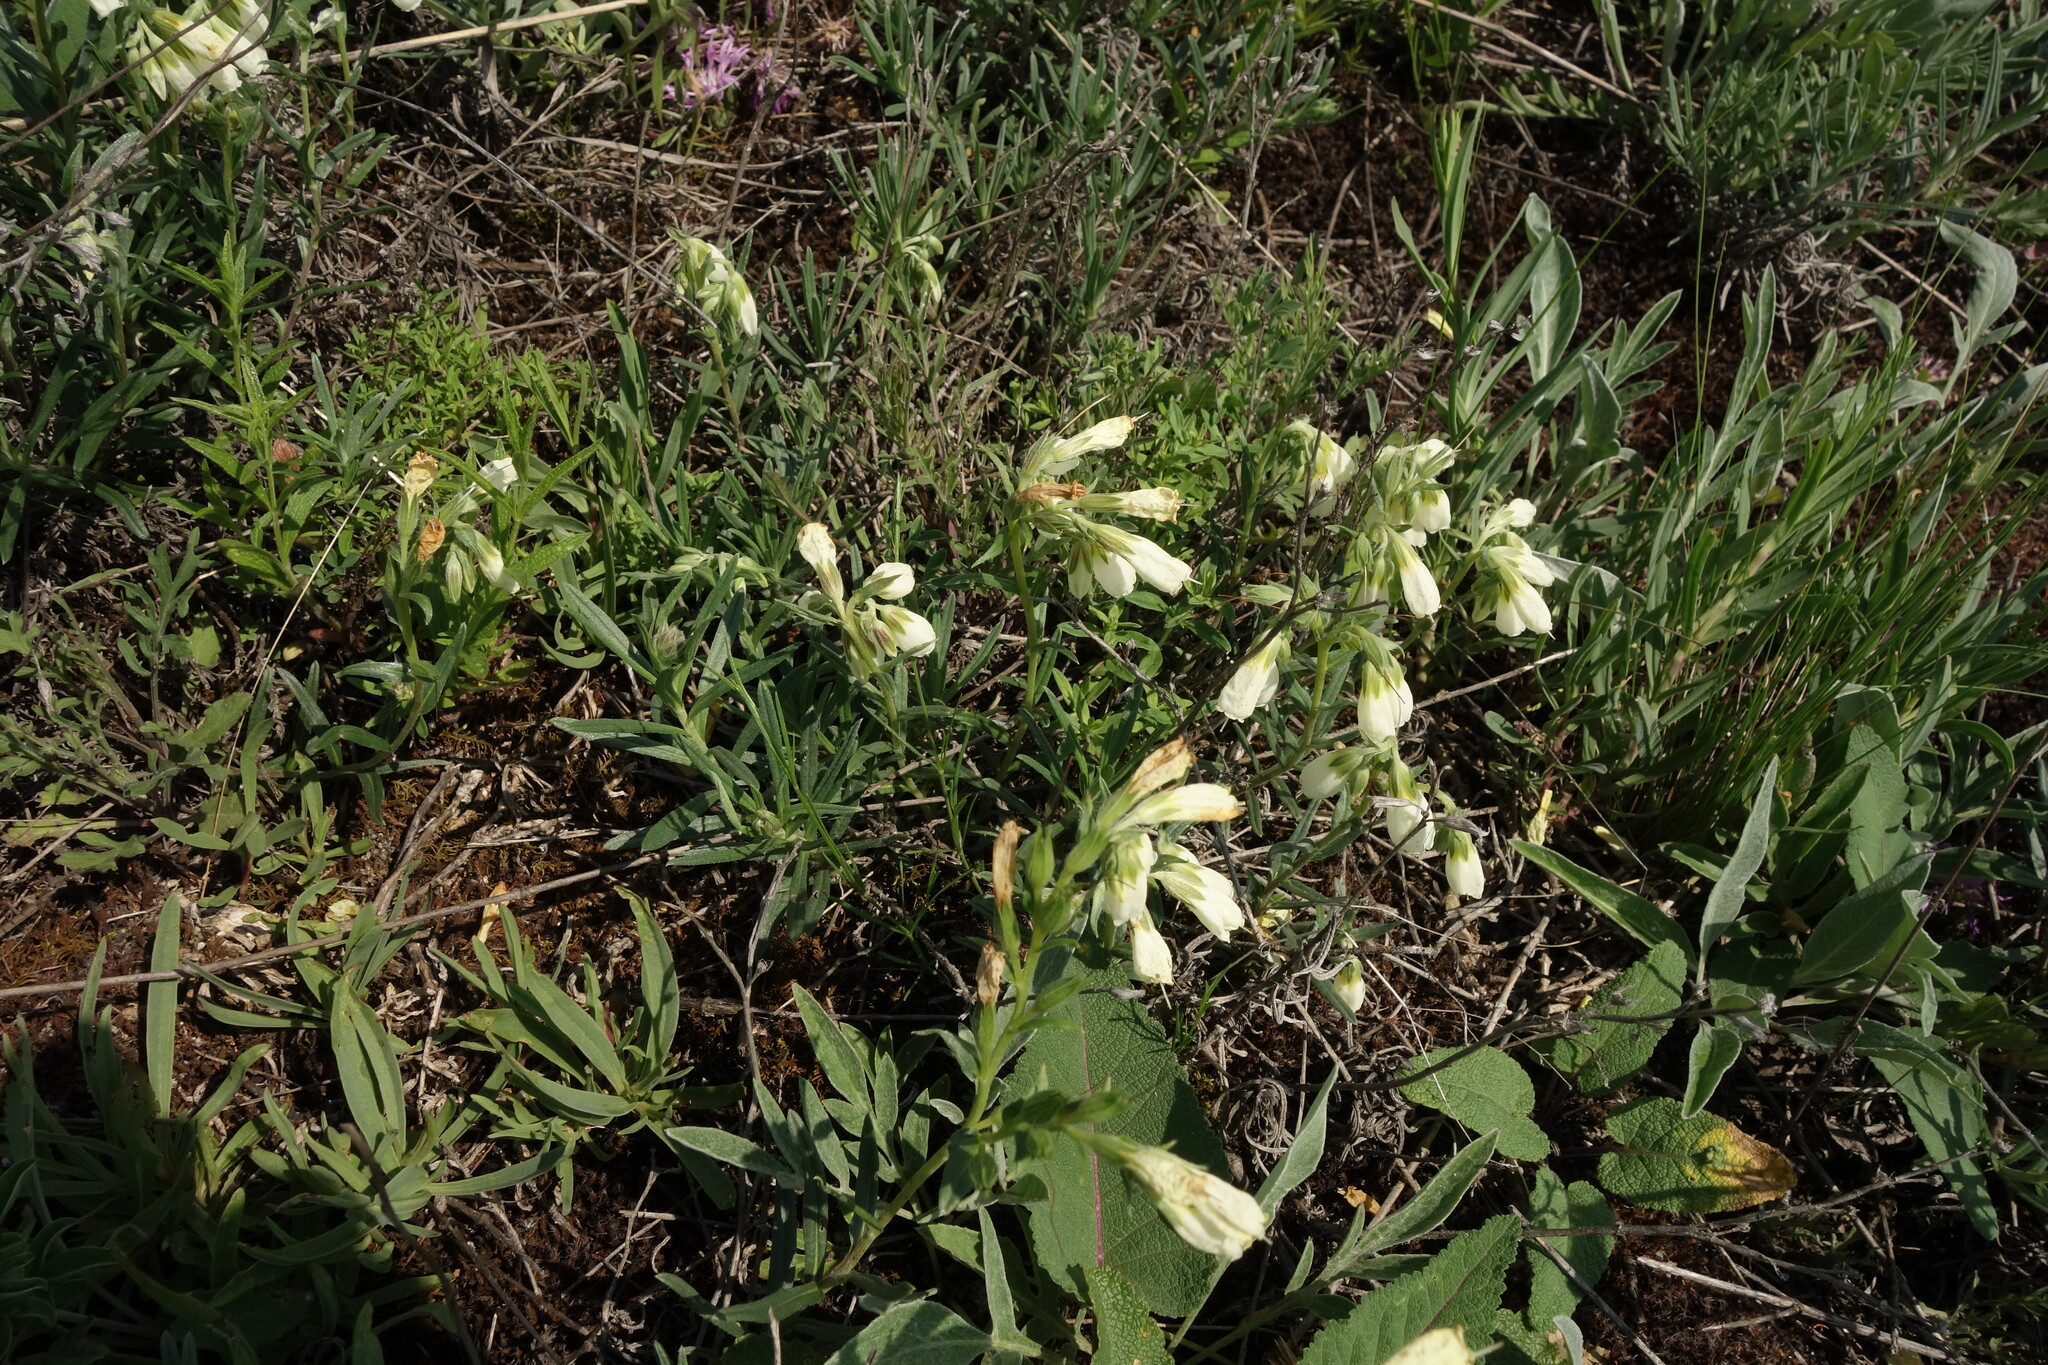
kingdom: Plantae
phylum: Tracheophyta
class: Magnoliopsida
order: Boraginales
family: Boraginaceae
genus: Onosma
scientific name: Onosma simplicissima
